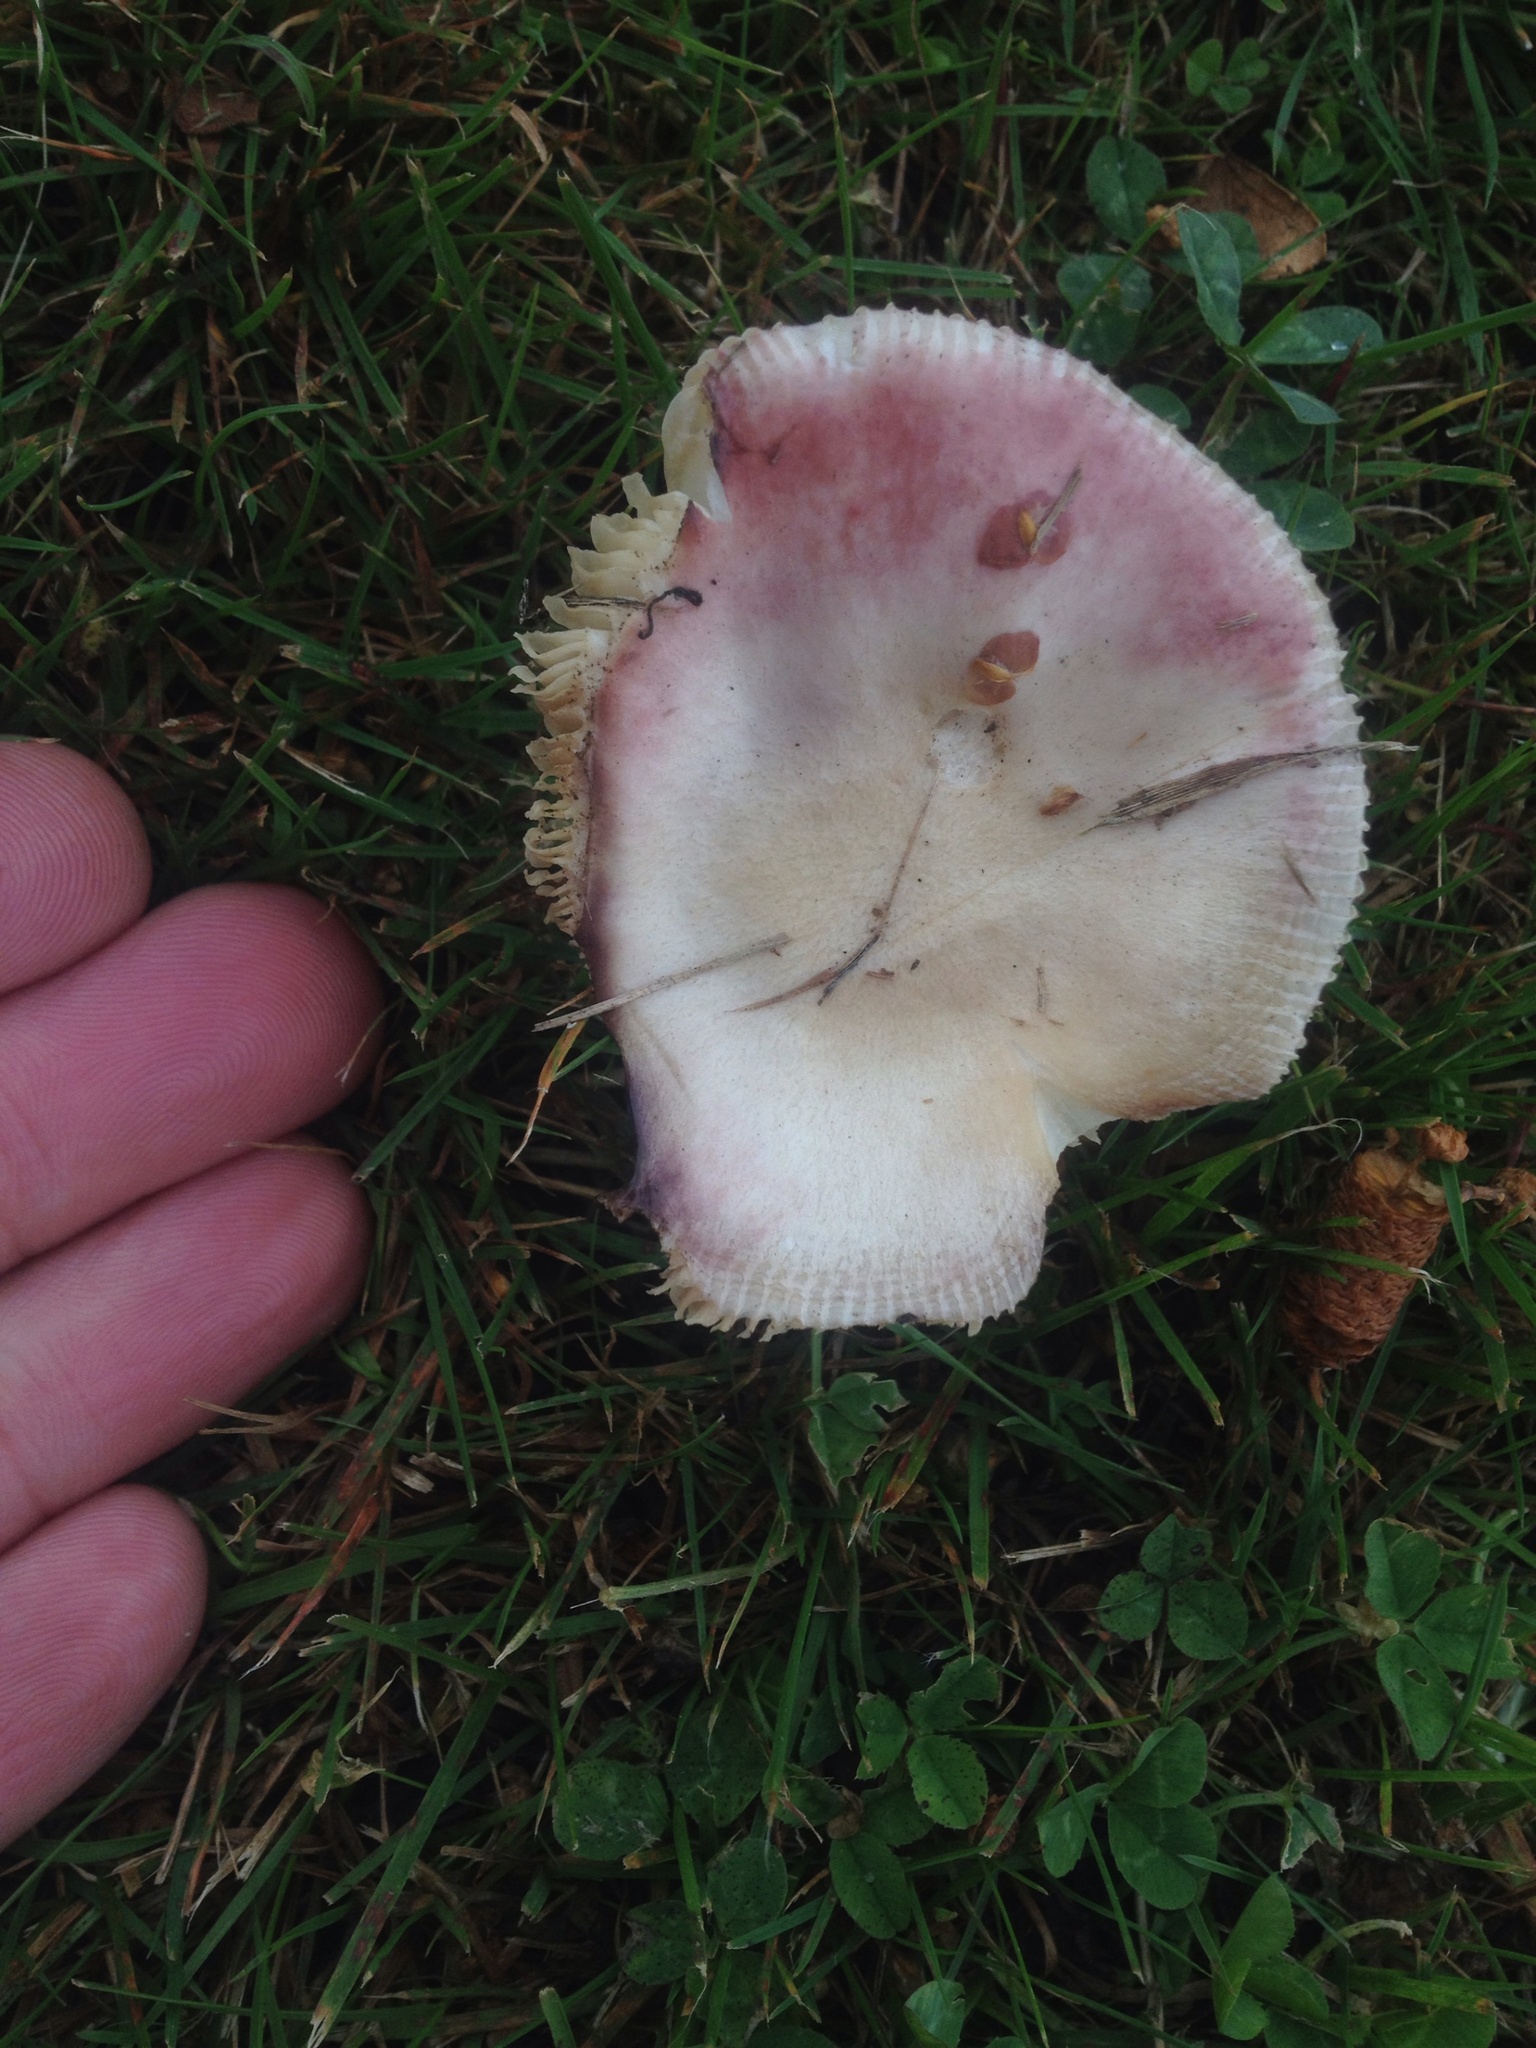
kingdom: Fungi
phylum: Basidiomycota
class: Agaricomycetes
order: Russulales
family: Russulaceae
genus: Russula
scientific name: Russula nitida
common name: Purple swamp brittlegill
